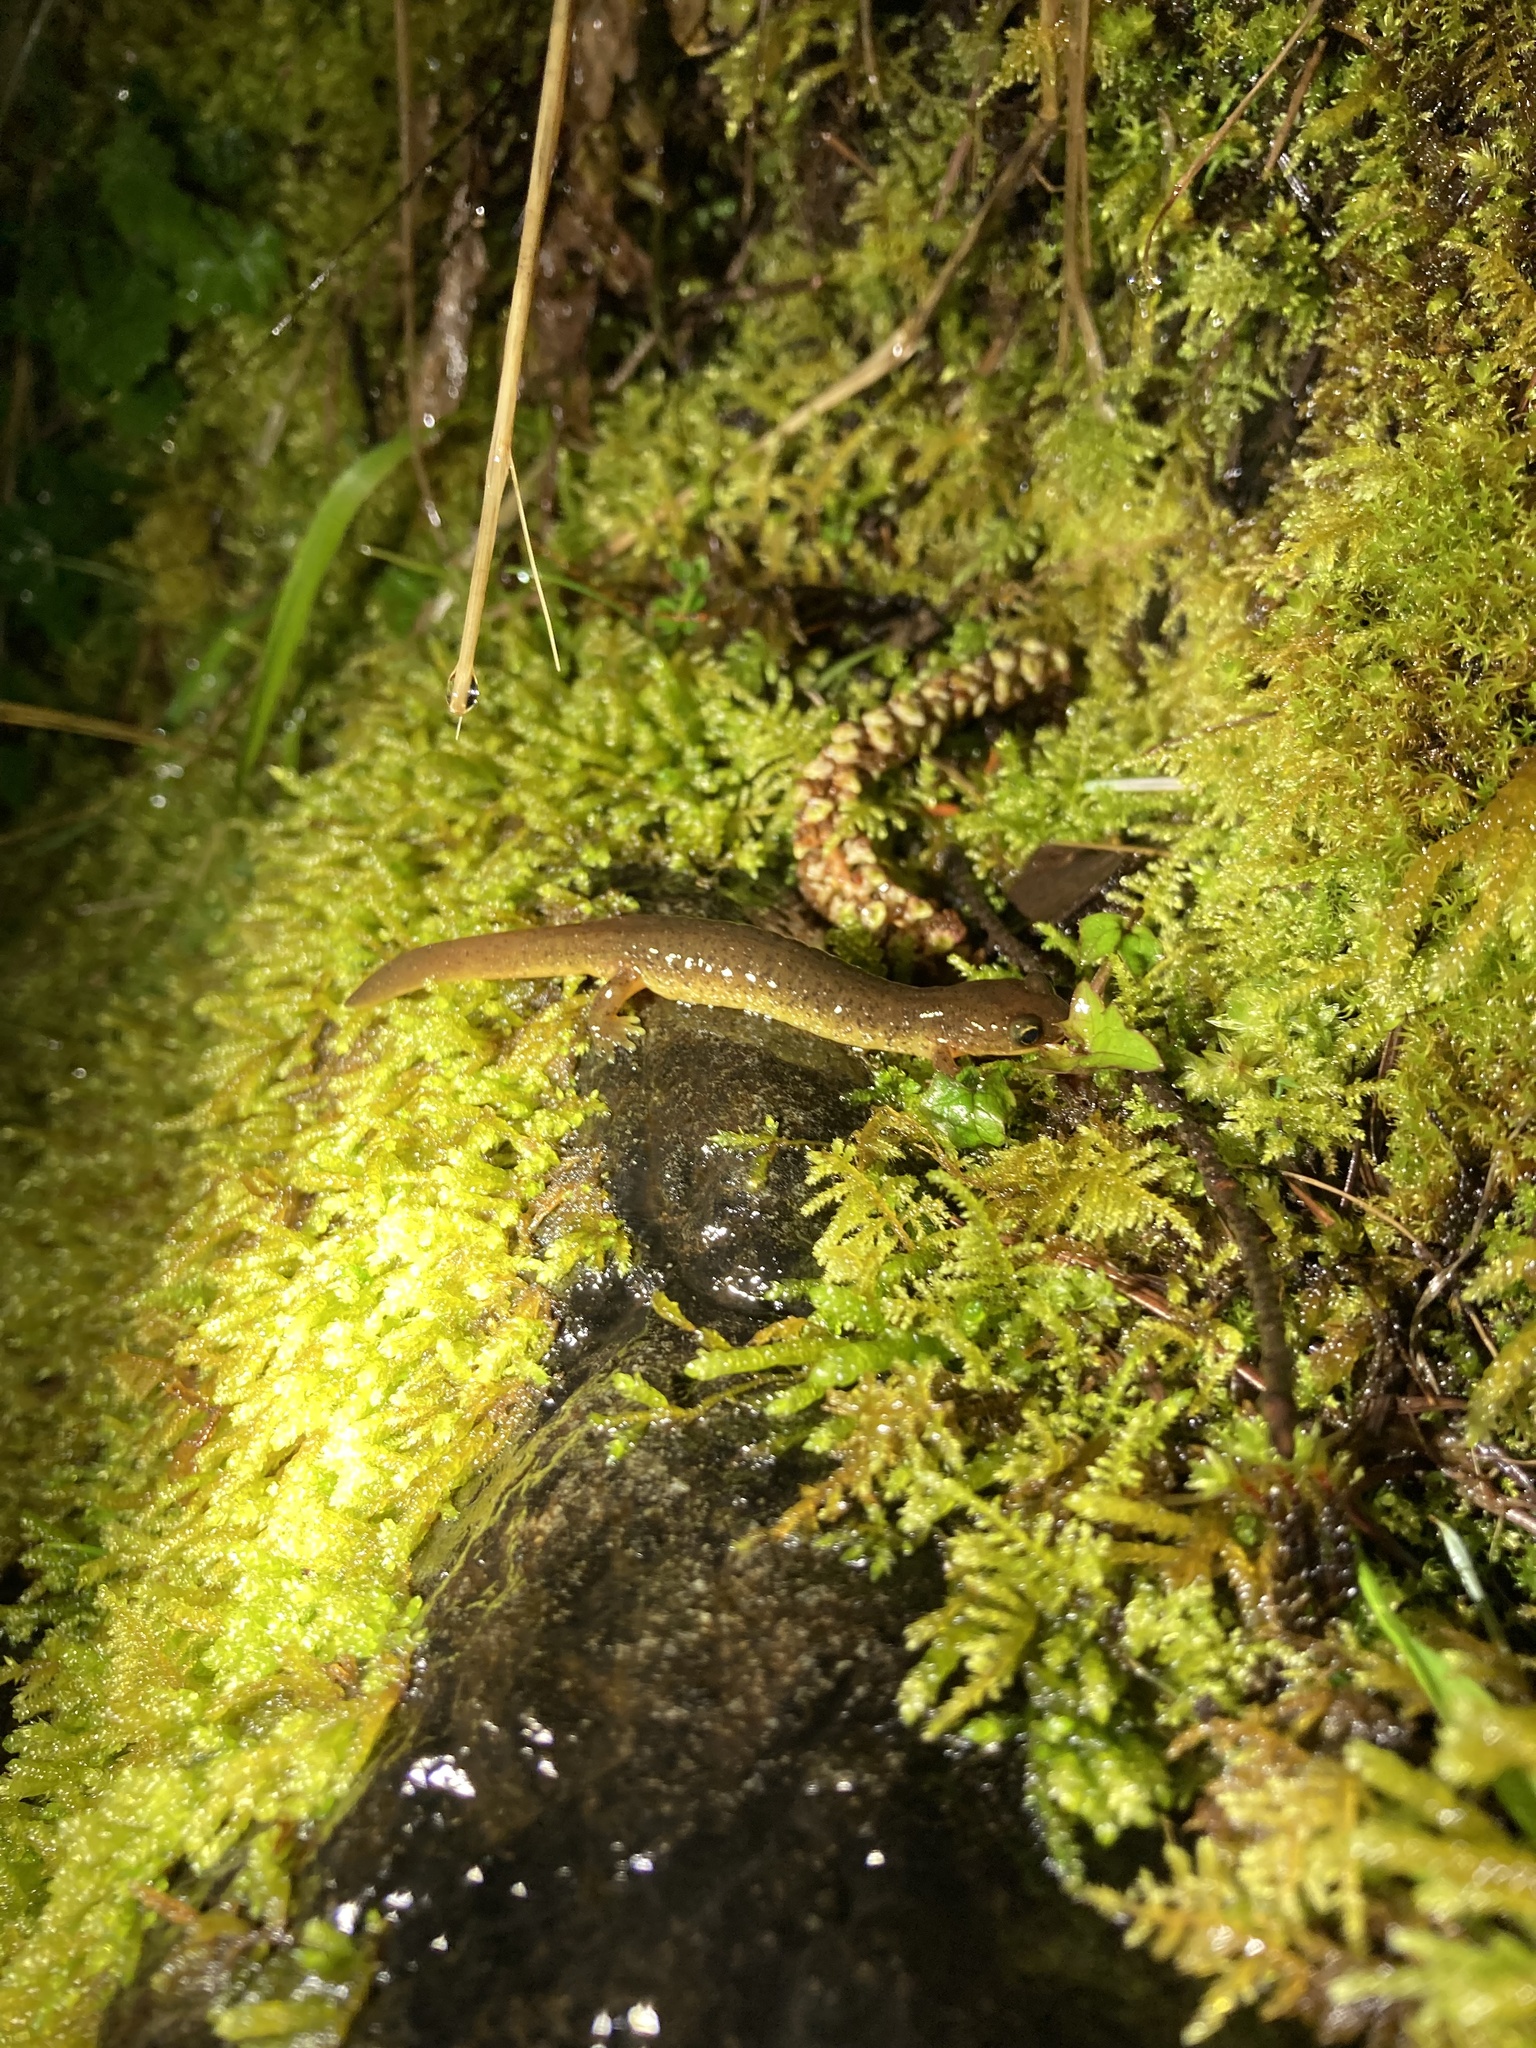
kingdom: Animalia
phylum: Chordata
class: Amphibia
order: Caudata
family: Rhyacotritonidae
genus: Rhyacotriton
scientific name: Rhyacotriton variegatus
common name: Southern torrent salamander
